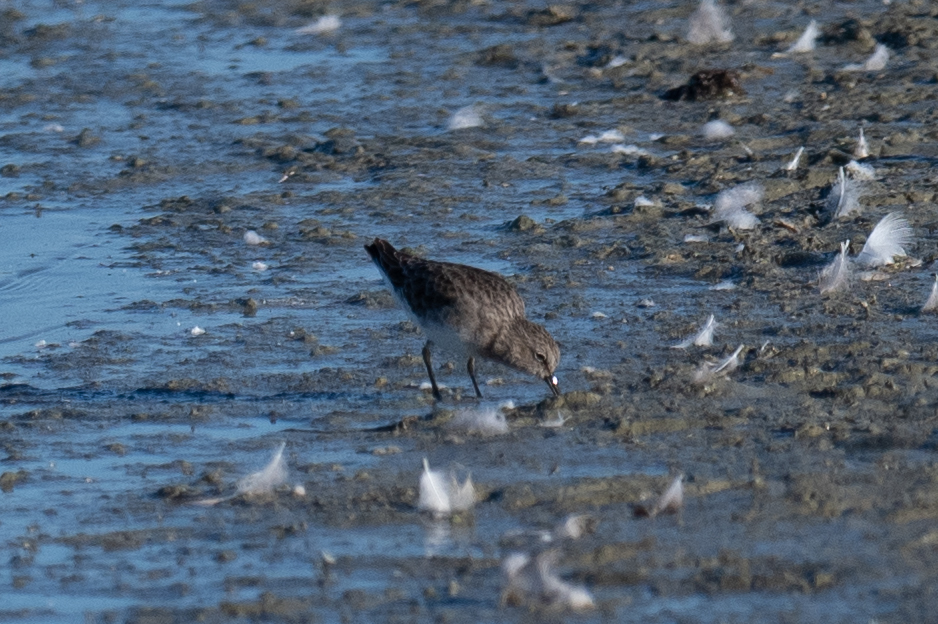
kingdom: Animalia
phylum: Chordata
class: Aves
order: Charadriiformes
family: Scolopacidae
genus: Calidris
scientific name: Calidris minutilla
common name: Least sandpiper
